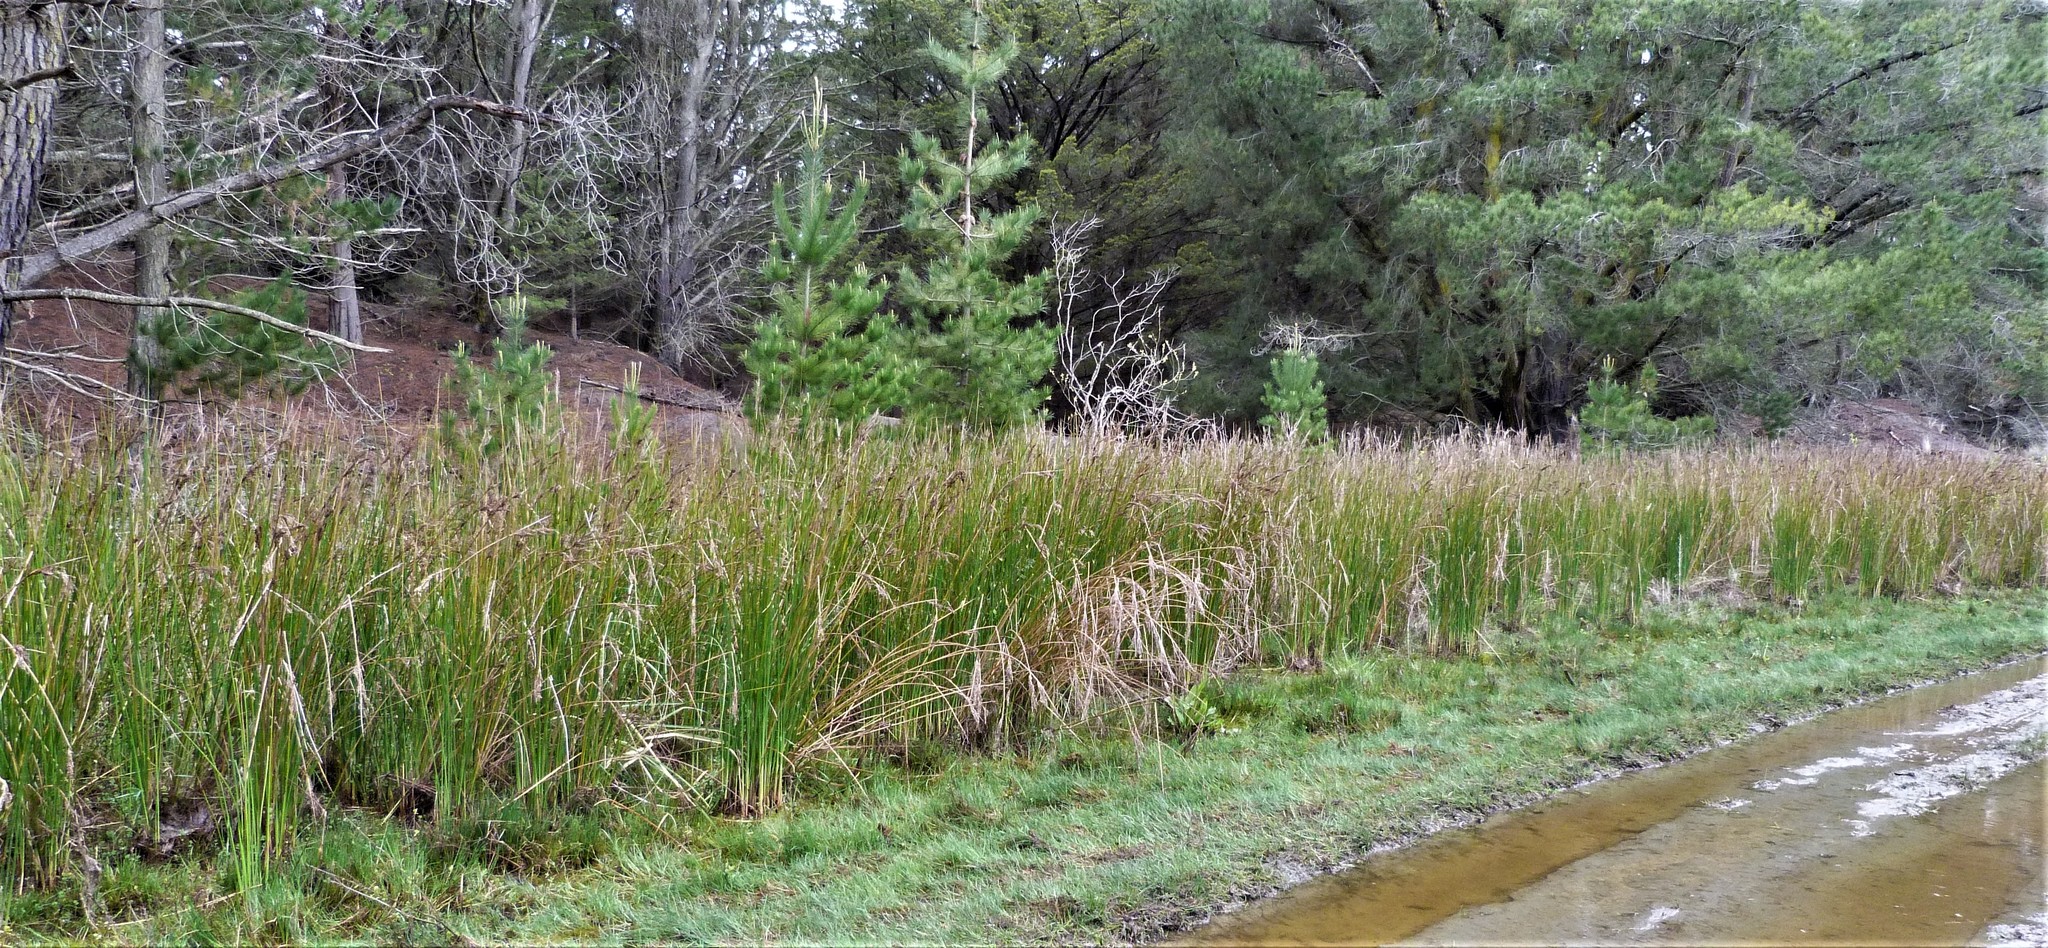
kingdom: Plantae
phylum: Tracheophyta
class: Liliopsida
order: Poales
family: Juncaceae
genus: Juncus
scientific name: Juncus pallidus
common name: Great soft-rush
